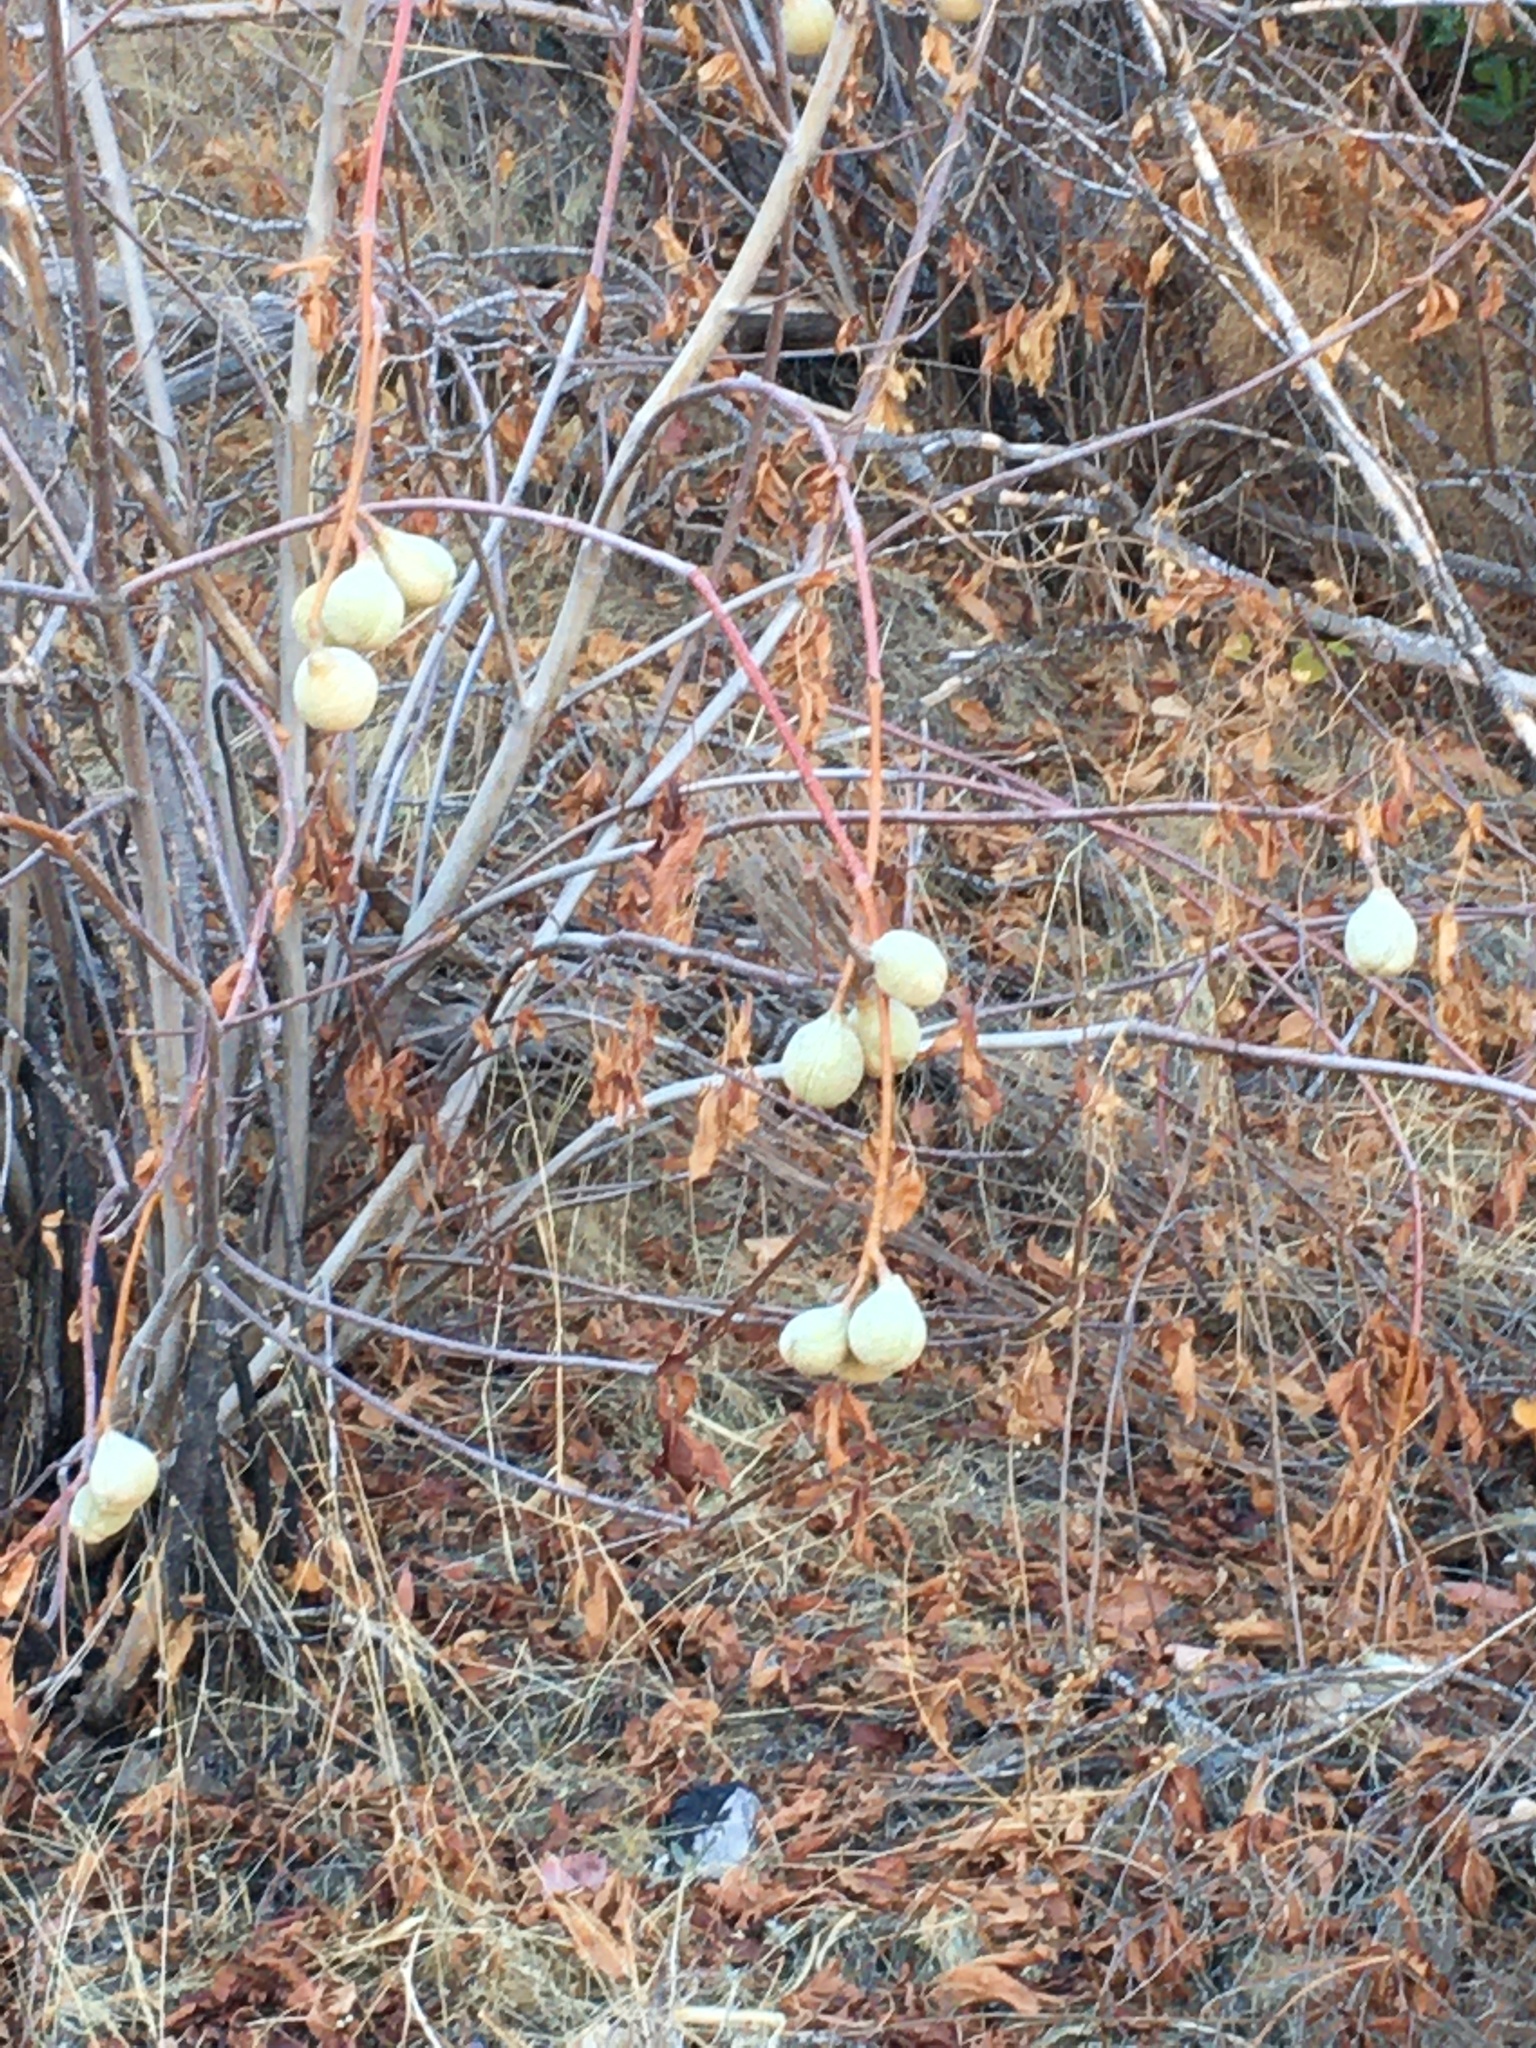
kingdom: Plantae
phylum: Tracheophyta
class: Magnoliopsida
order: Sapindales
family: Sapindaceae
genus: Aesculus
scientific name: Aesculus californica
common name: California buckeye
